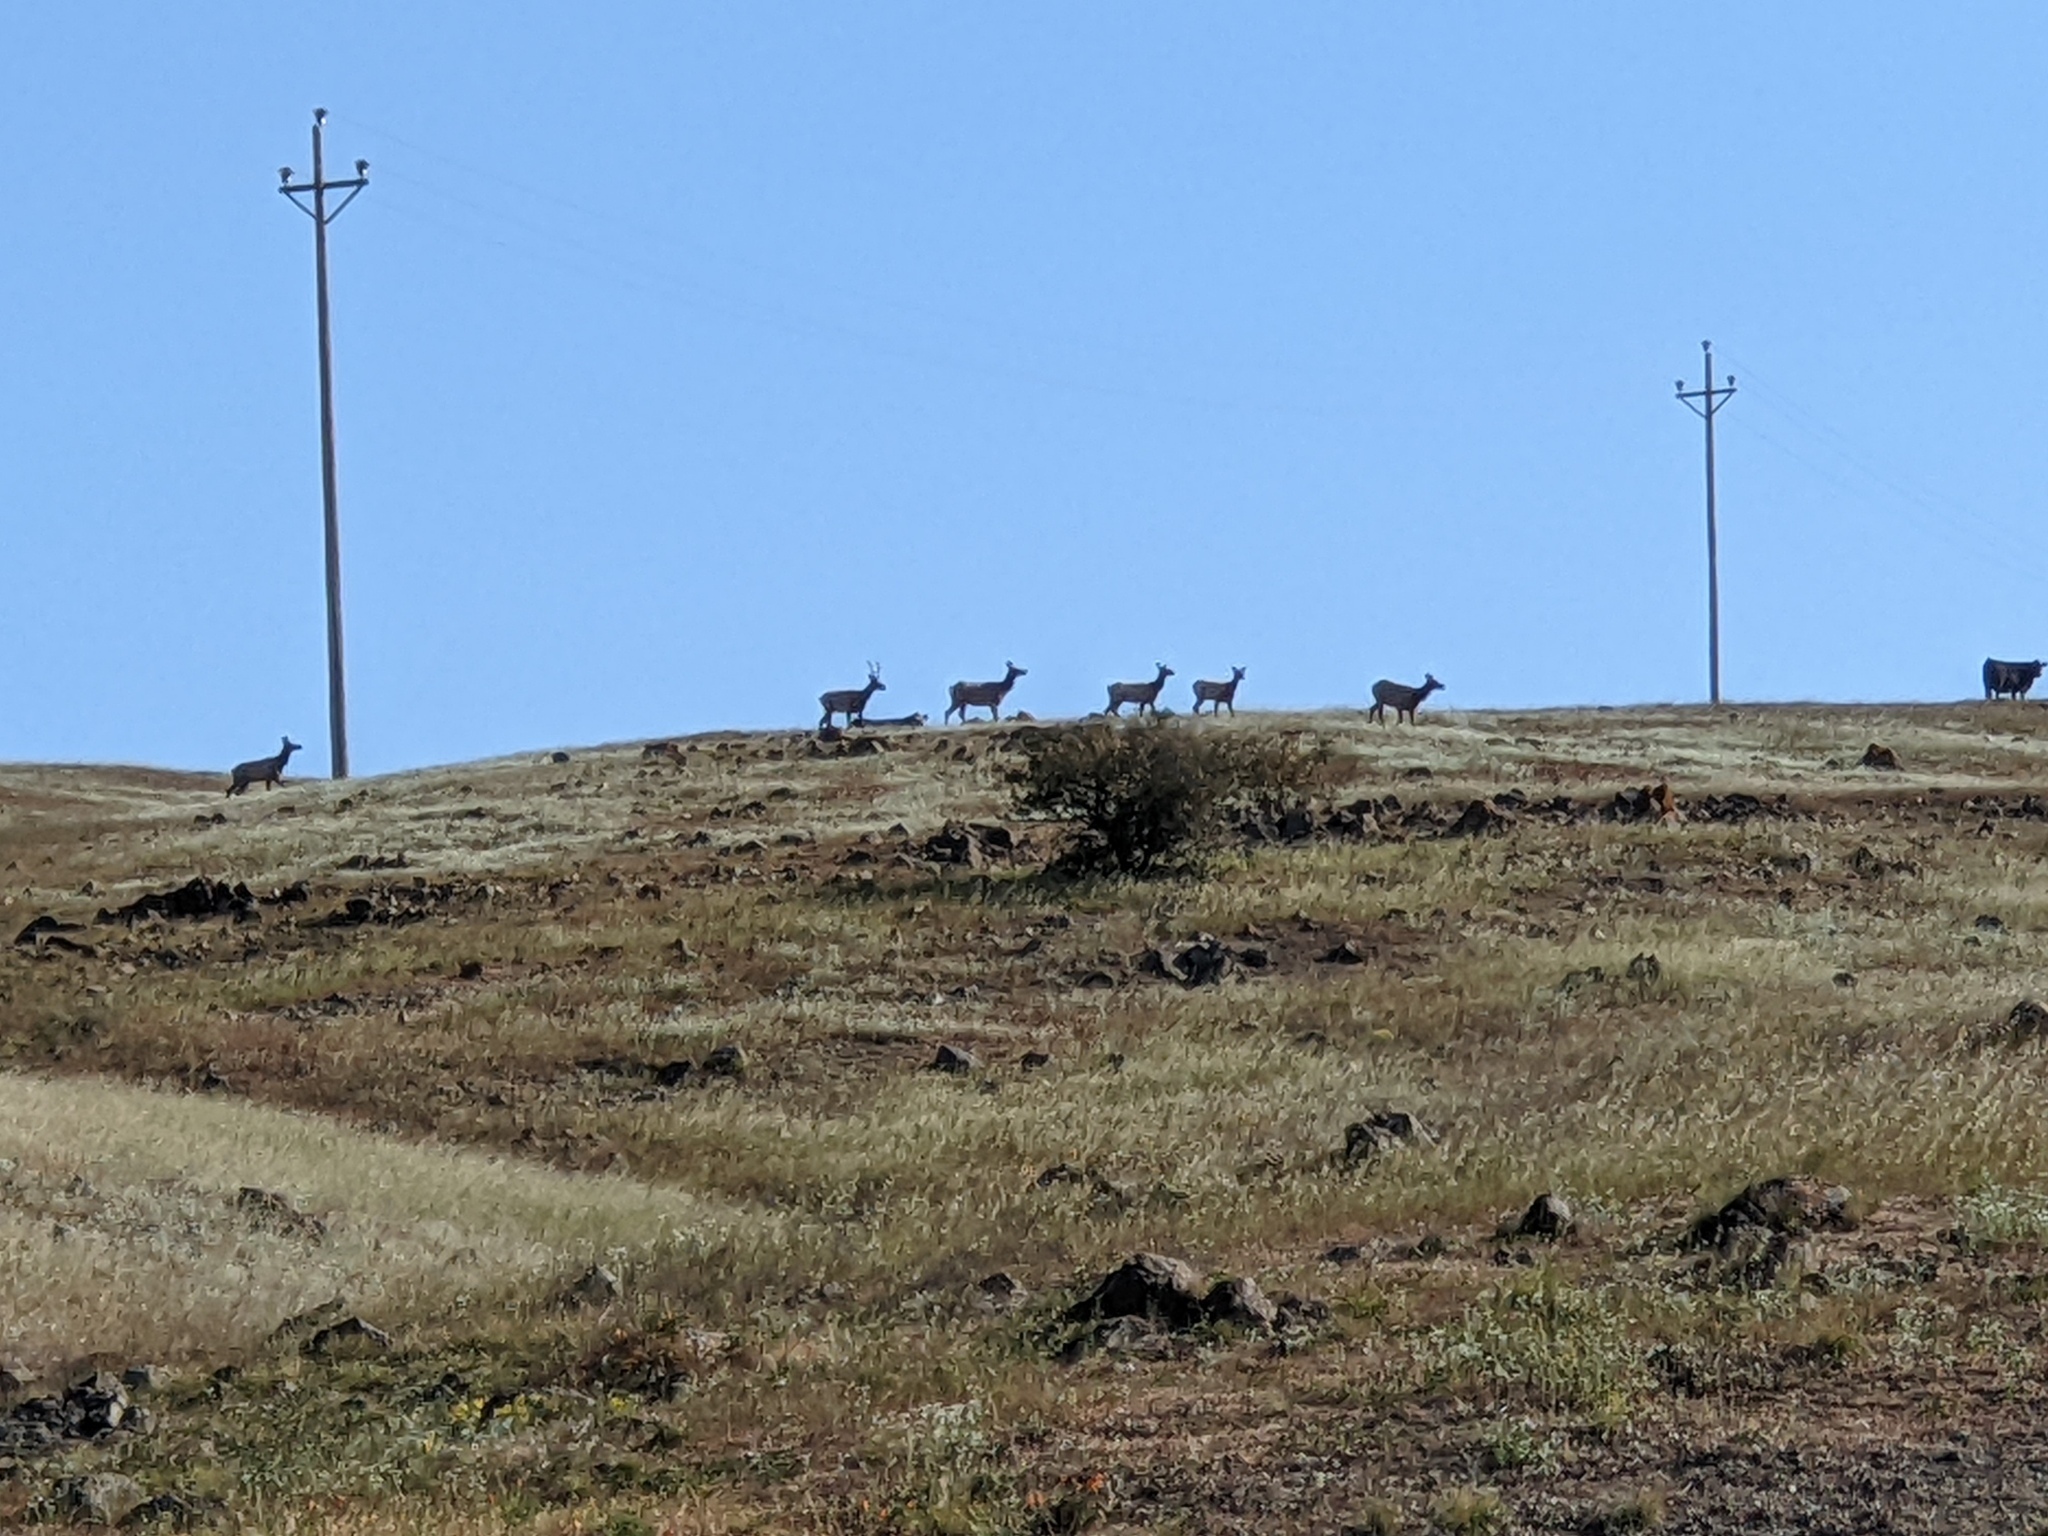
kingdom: Animalia
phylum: Chordata
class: Mammalia
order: Artiodactyla
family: Cervidae
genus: Cervus
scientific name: Cervus elaphus
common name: Red deer
